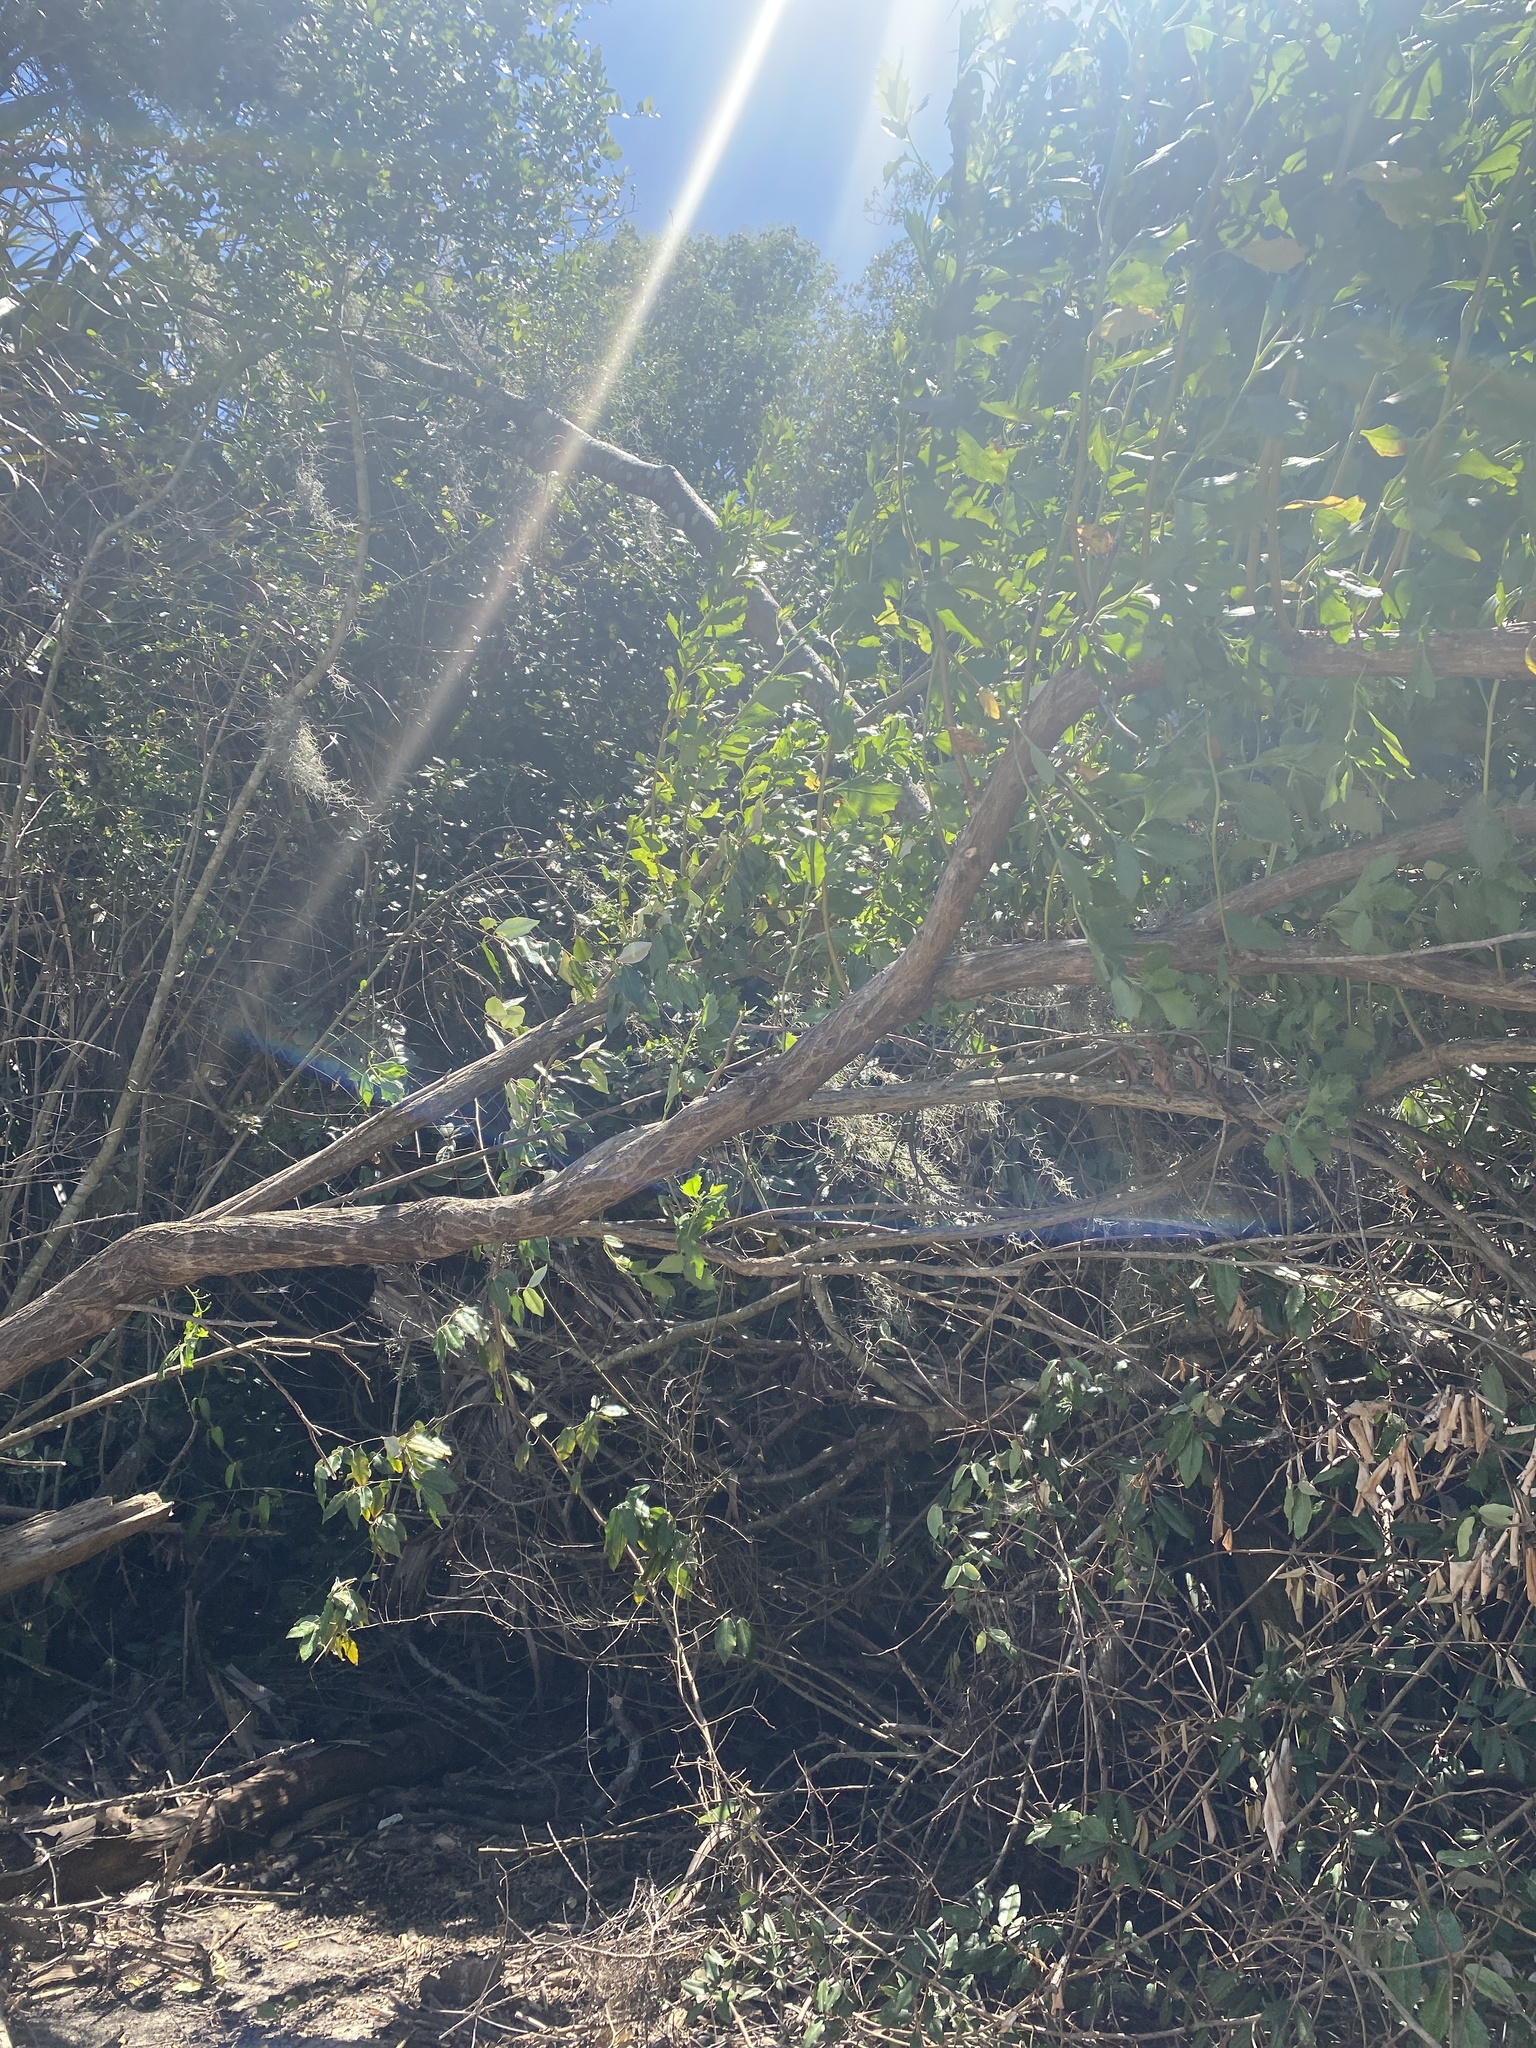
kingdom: Plantae
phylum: Tracheophyta
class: Magnoliopsida
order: Asterales
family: Asteraceae
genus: Baccharis
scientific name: Baccharis halimifolia
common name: Eastern baccharis
